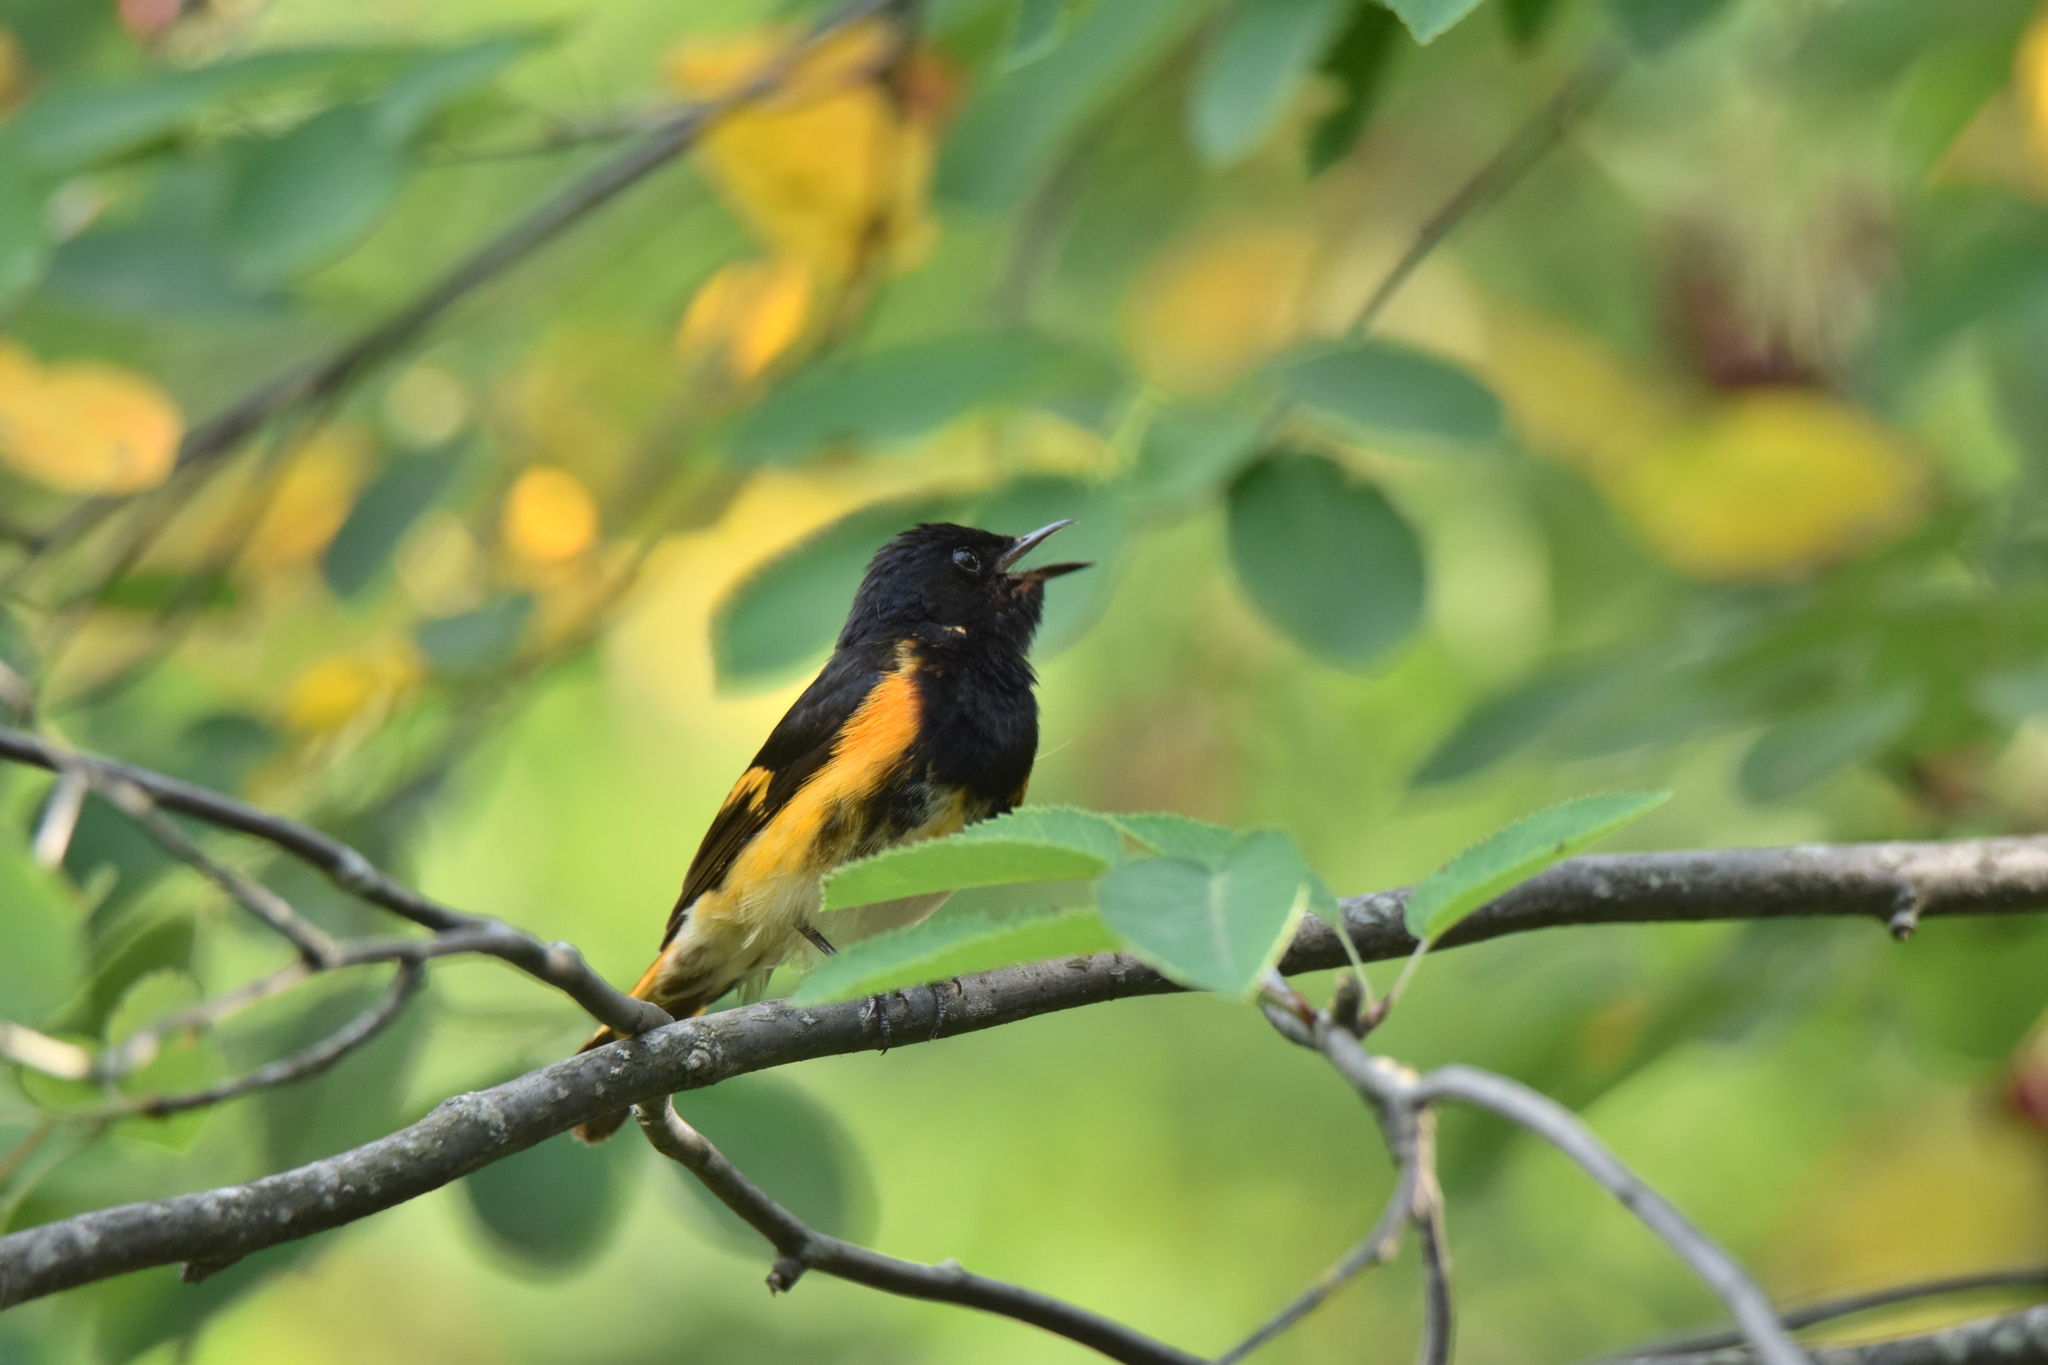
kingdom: Animalia
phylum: Chordata
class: Aves
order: Passeriformes
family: Parulidae
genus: Setophaga
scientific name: Setophaga ruticilla
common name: American redstart
